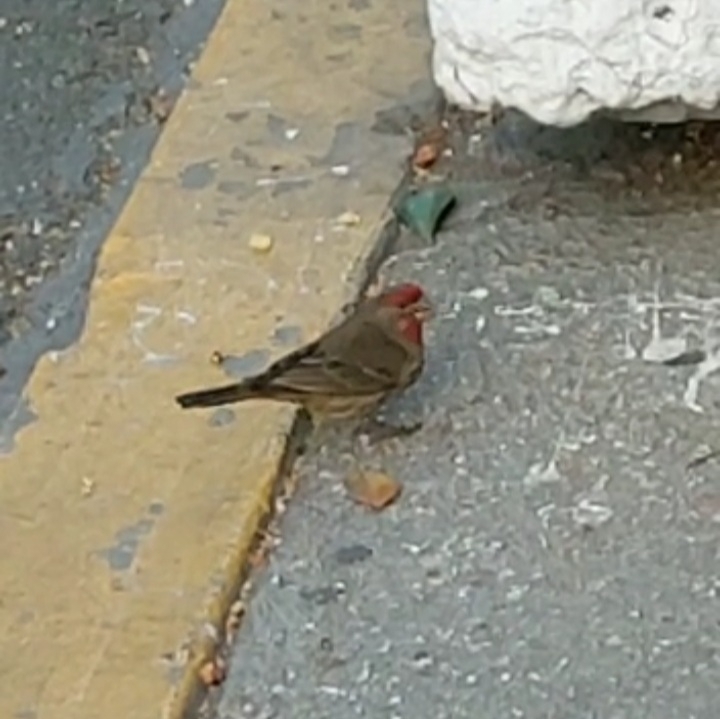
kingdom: Animalia
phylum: Chordata
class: Aves
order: Passeriformes
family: Fringillidae
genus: Haemorhous
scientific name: Haemorhous mexicanus
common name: House finch
